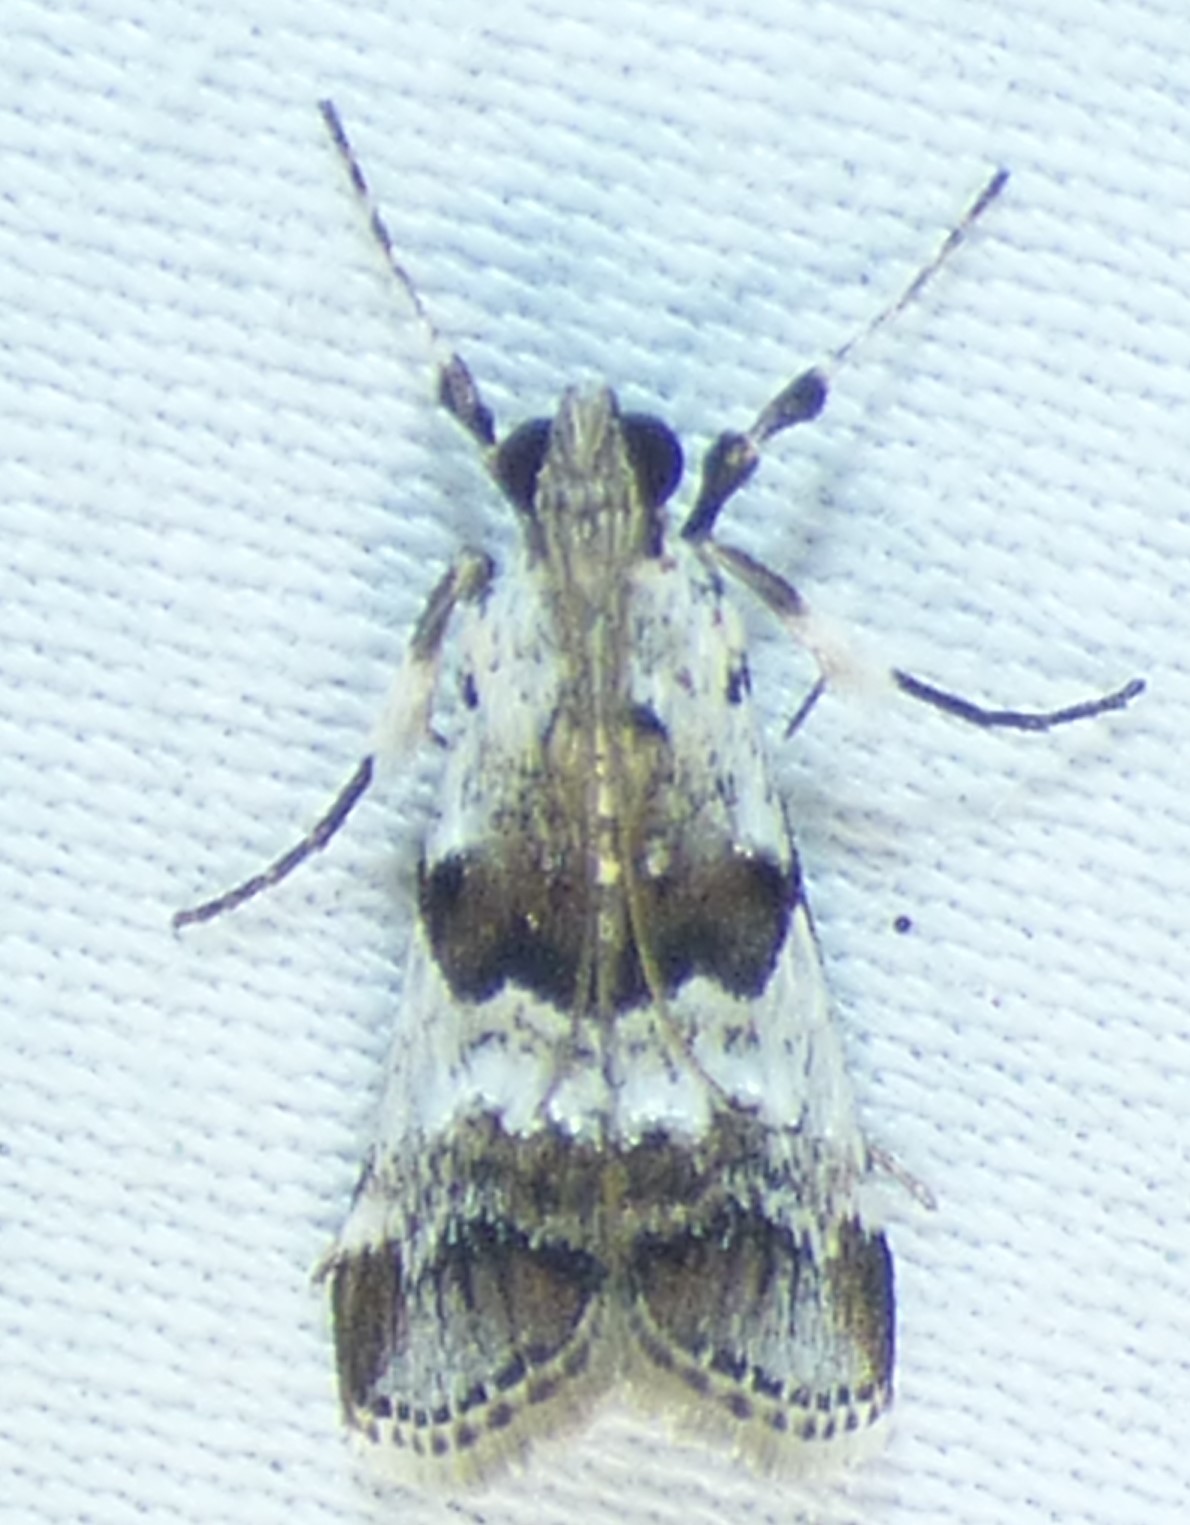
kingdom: Animalia
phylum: Arthropoda
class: Insecta
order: Lepidoptera
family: Pyralidae
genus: Tallula
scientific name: Tallula atrifascialis
